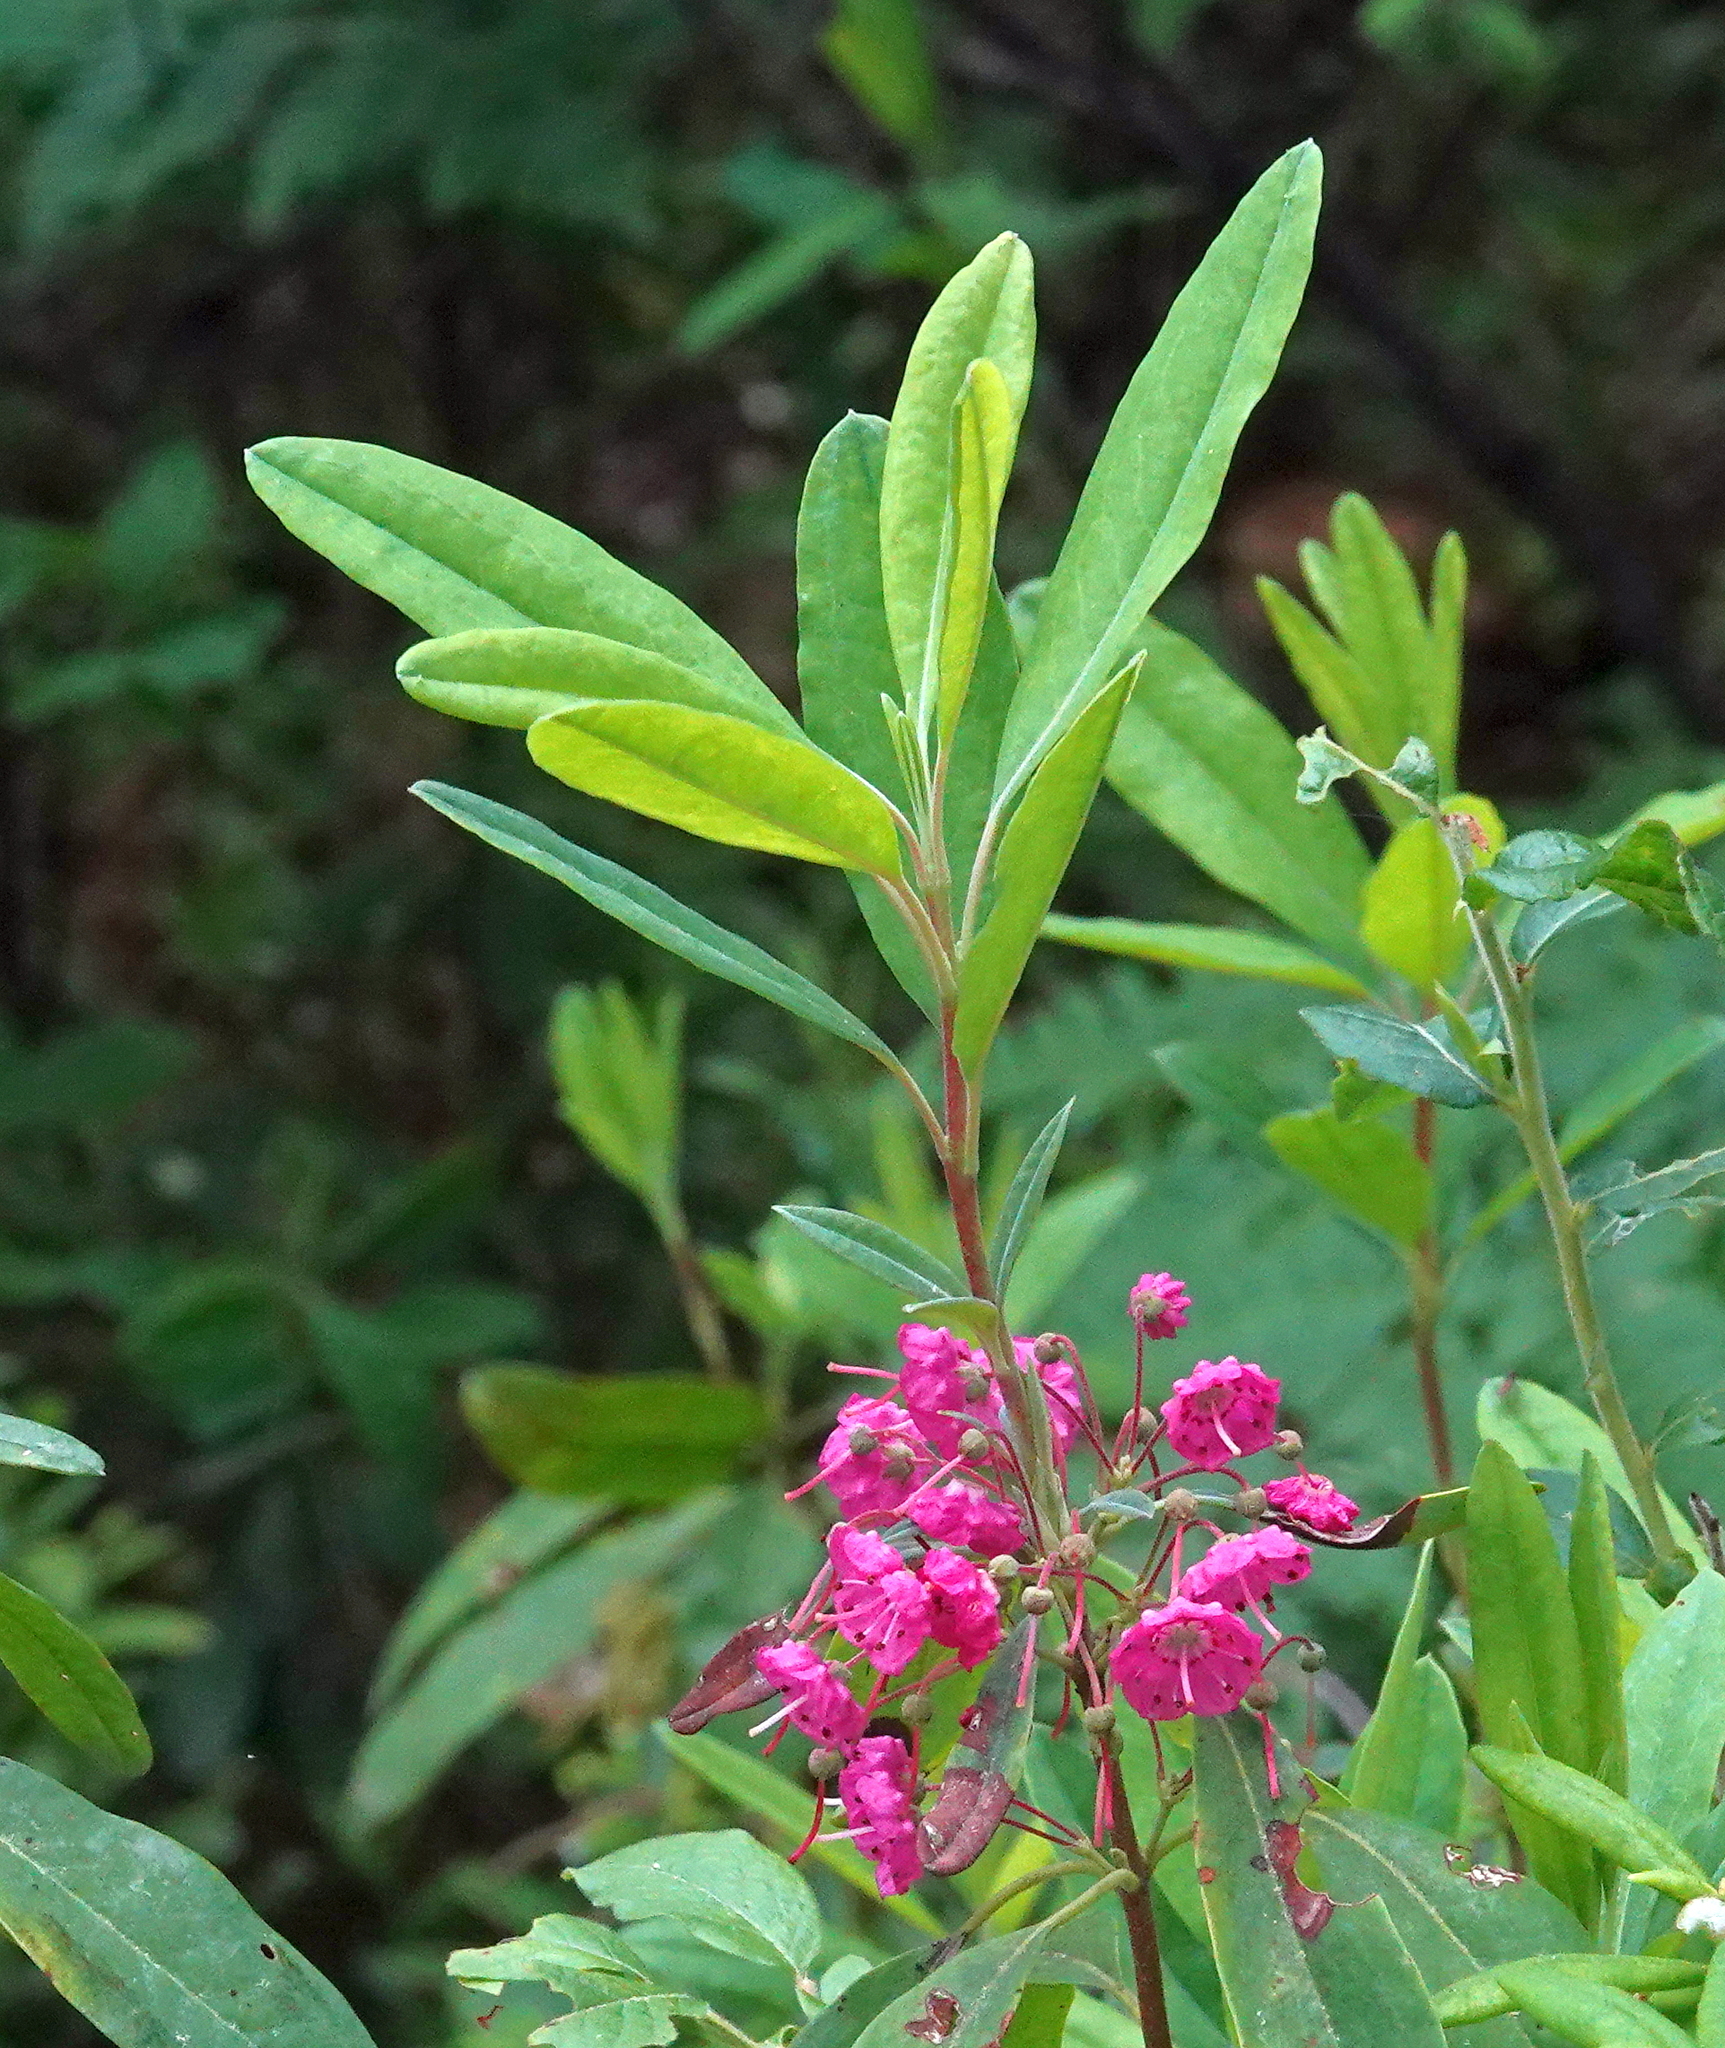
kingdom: Plantae
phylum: Tracheophyta
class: Magnoliopsida
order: Ericales
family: Ericaceae
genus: Kalmia
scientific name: Kalmia angustifolia
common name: Sheep-laurel
